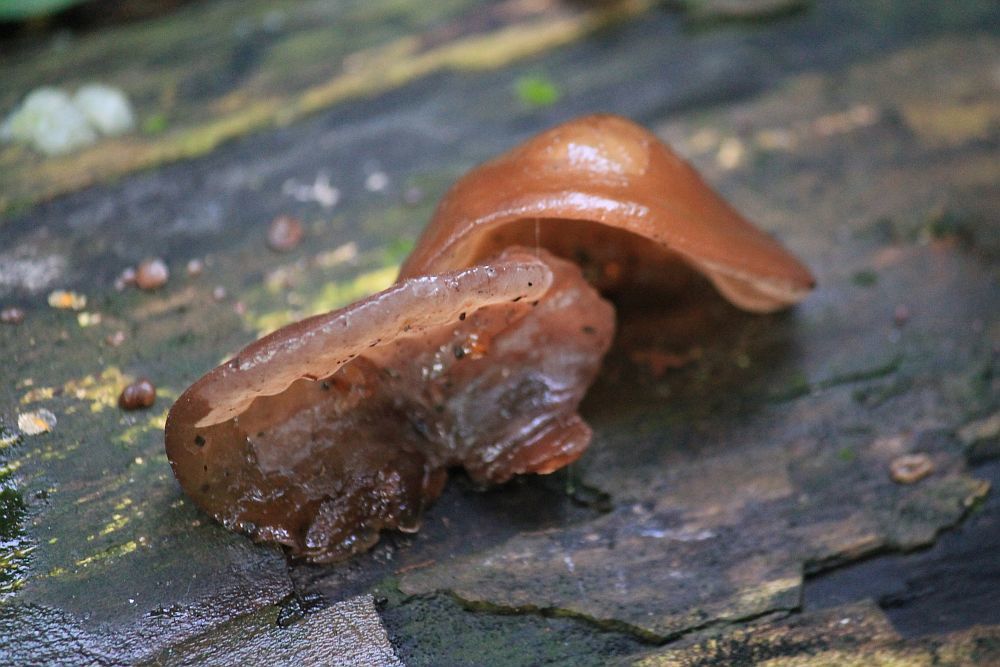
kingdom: Fungi
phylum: Basidiomycota
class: Agaricomycetes
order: Auriculariales
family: Auriculariaceae
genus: Auricularia
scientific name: Auricularia auricula-judae
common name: Jelly ear
